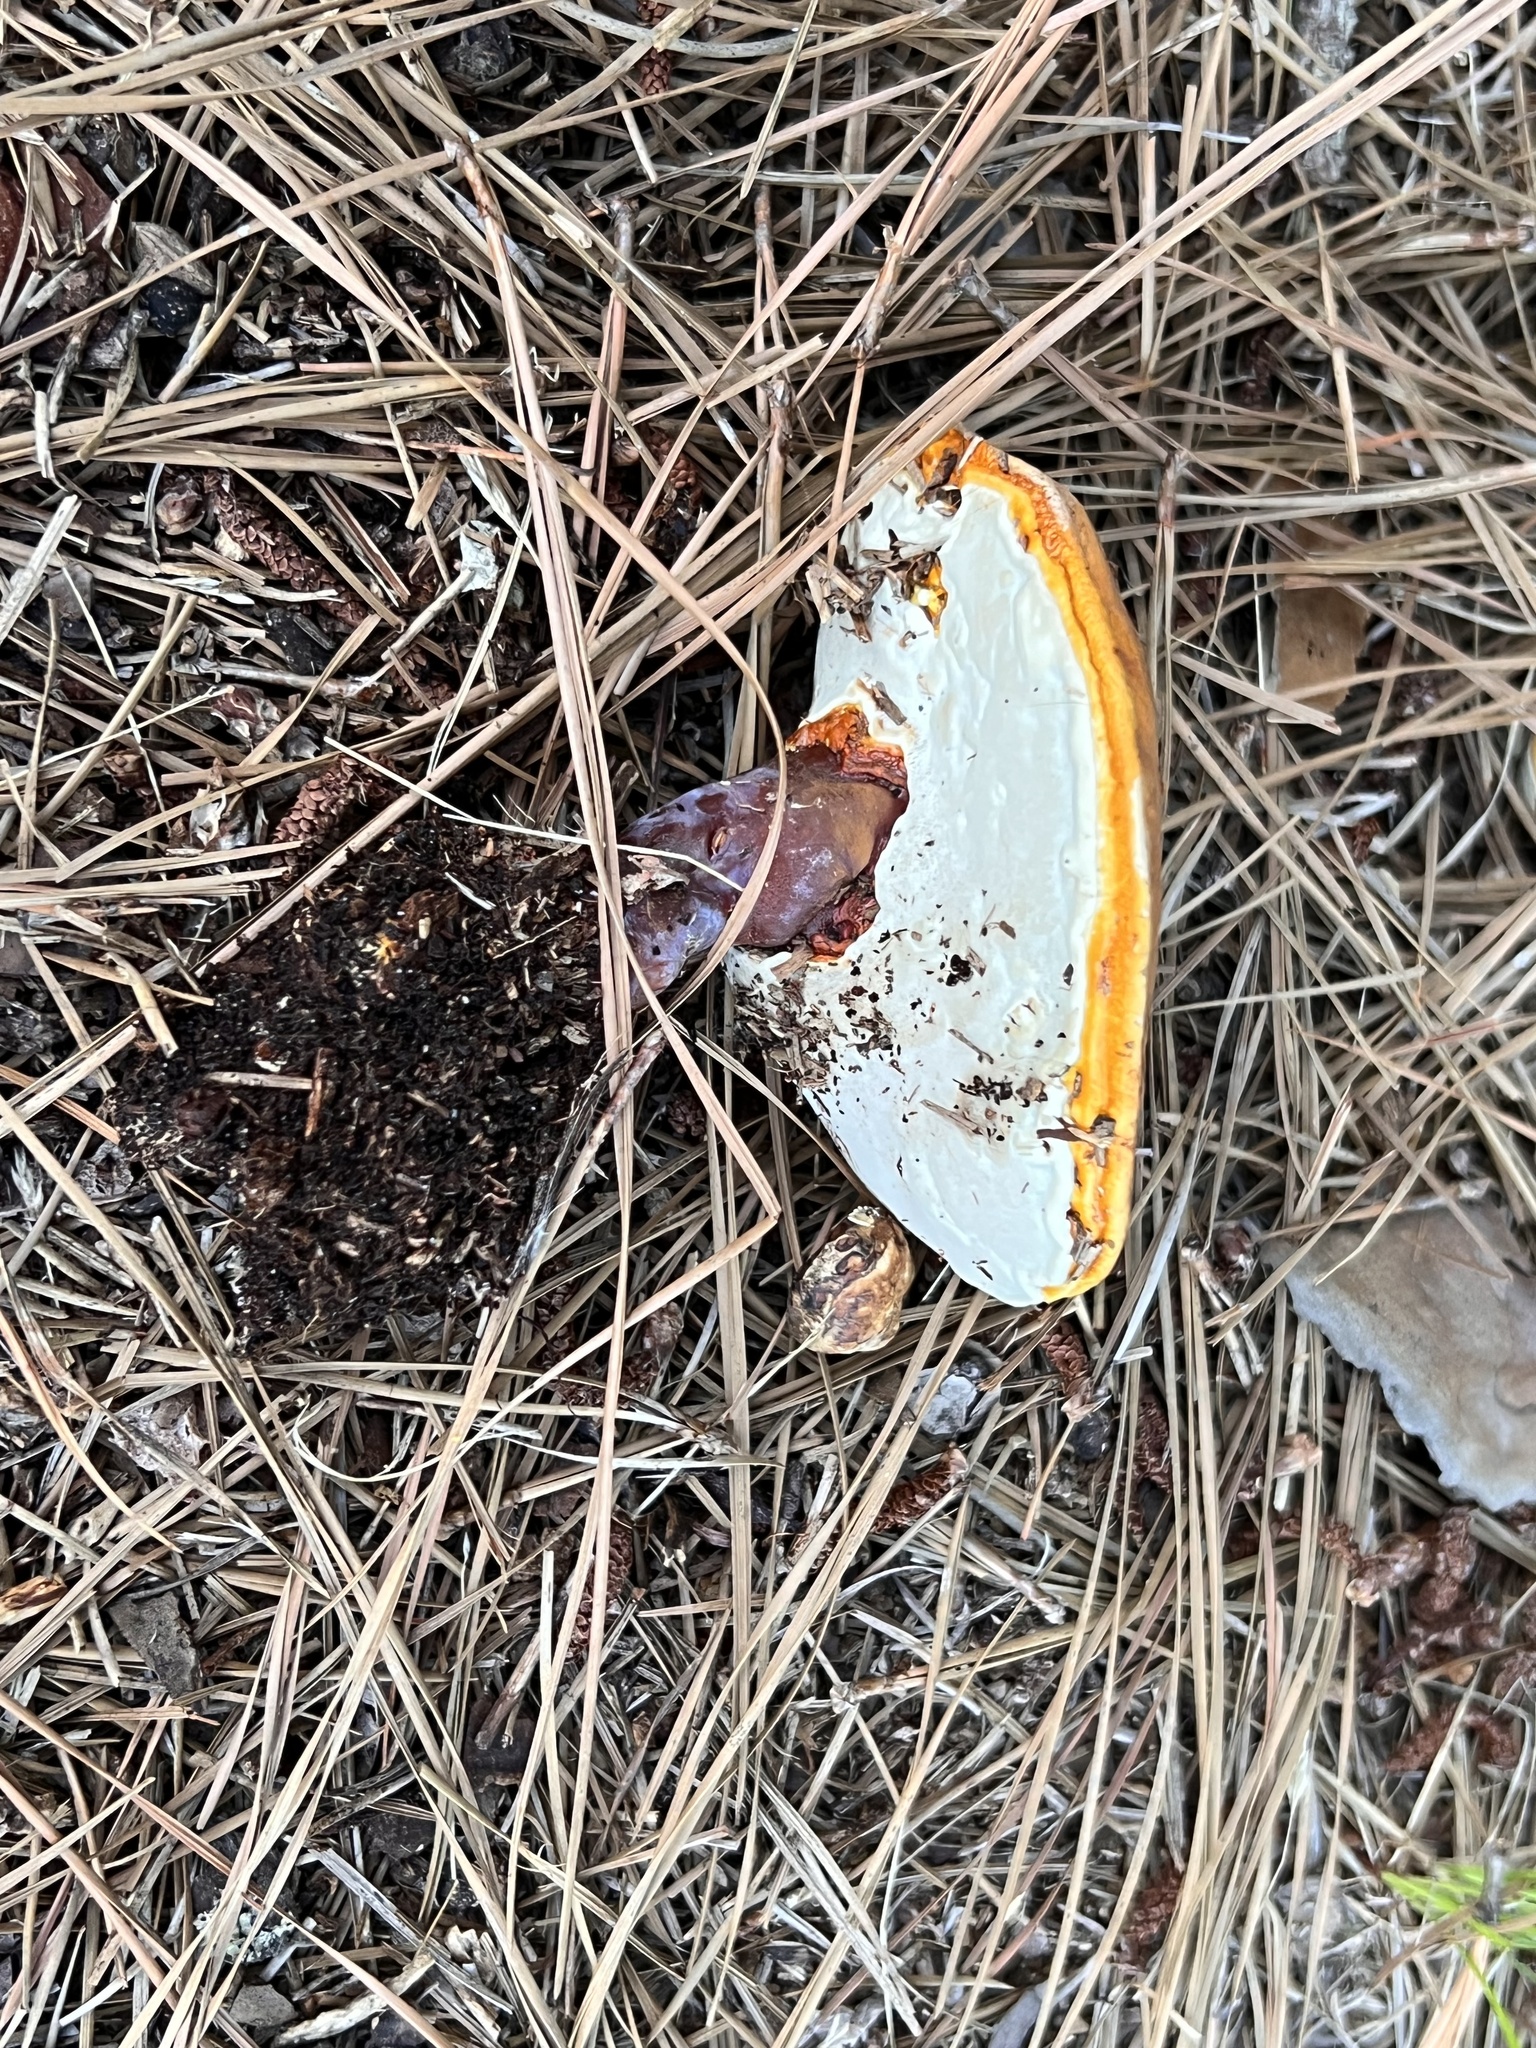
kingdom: Fungi
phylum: Basidiomycota
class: Agaricomycetes
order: Polyporales
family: Polyporaceae
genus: Ganoderma
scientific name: Ganoderma curtisii
